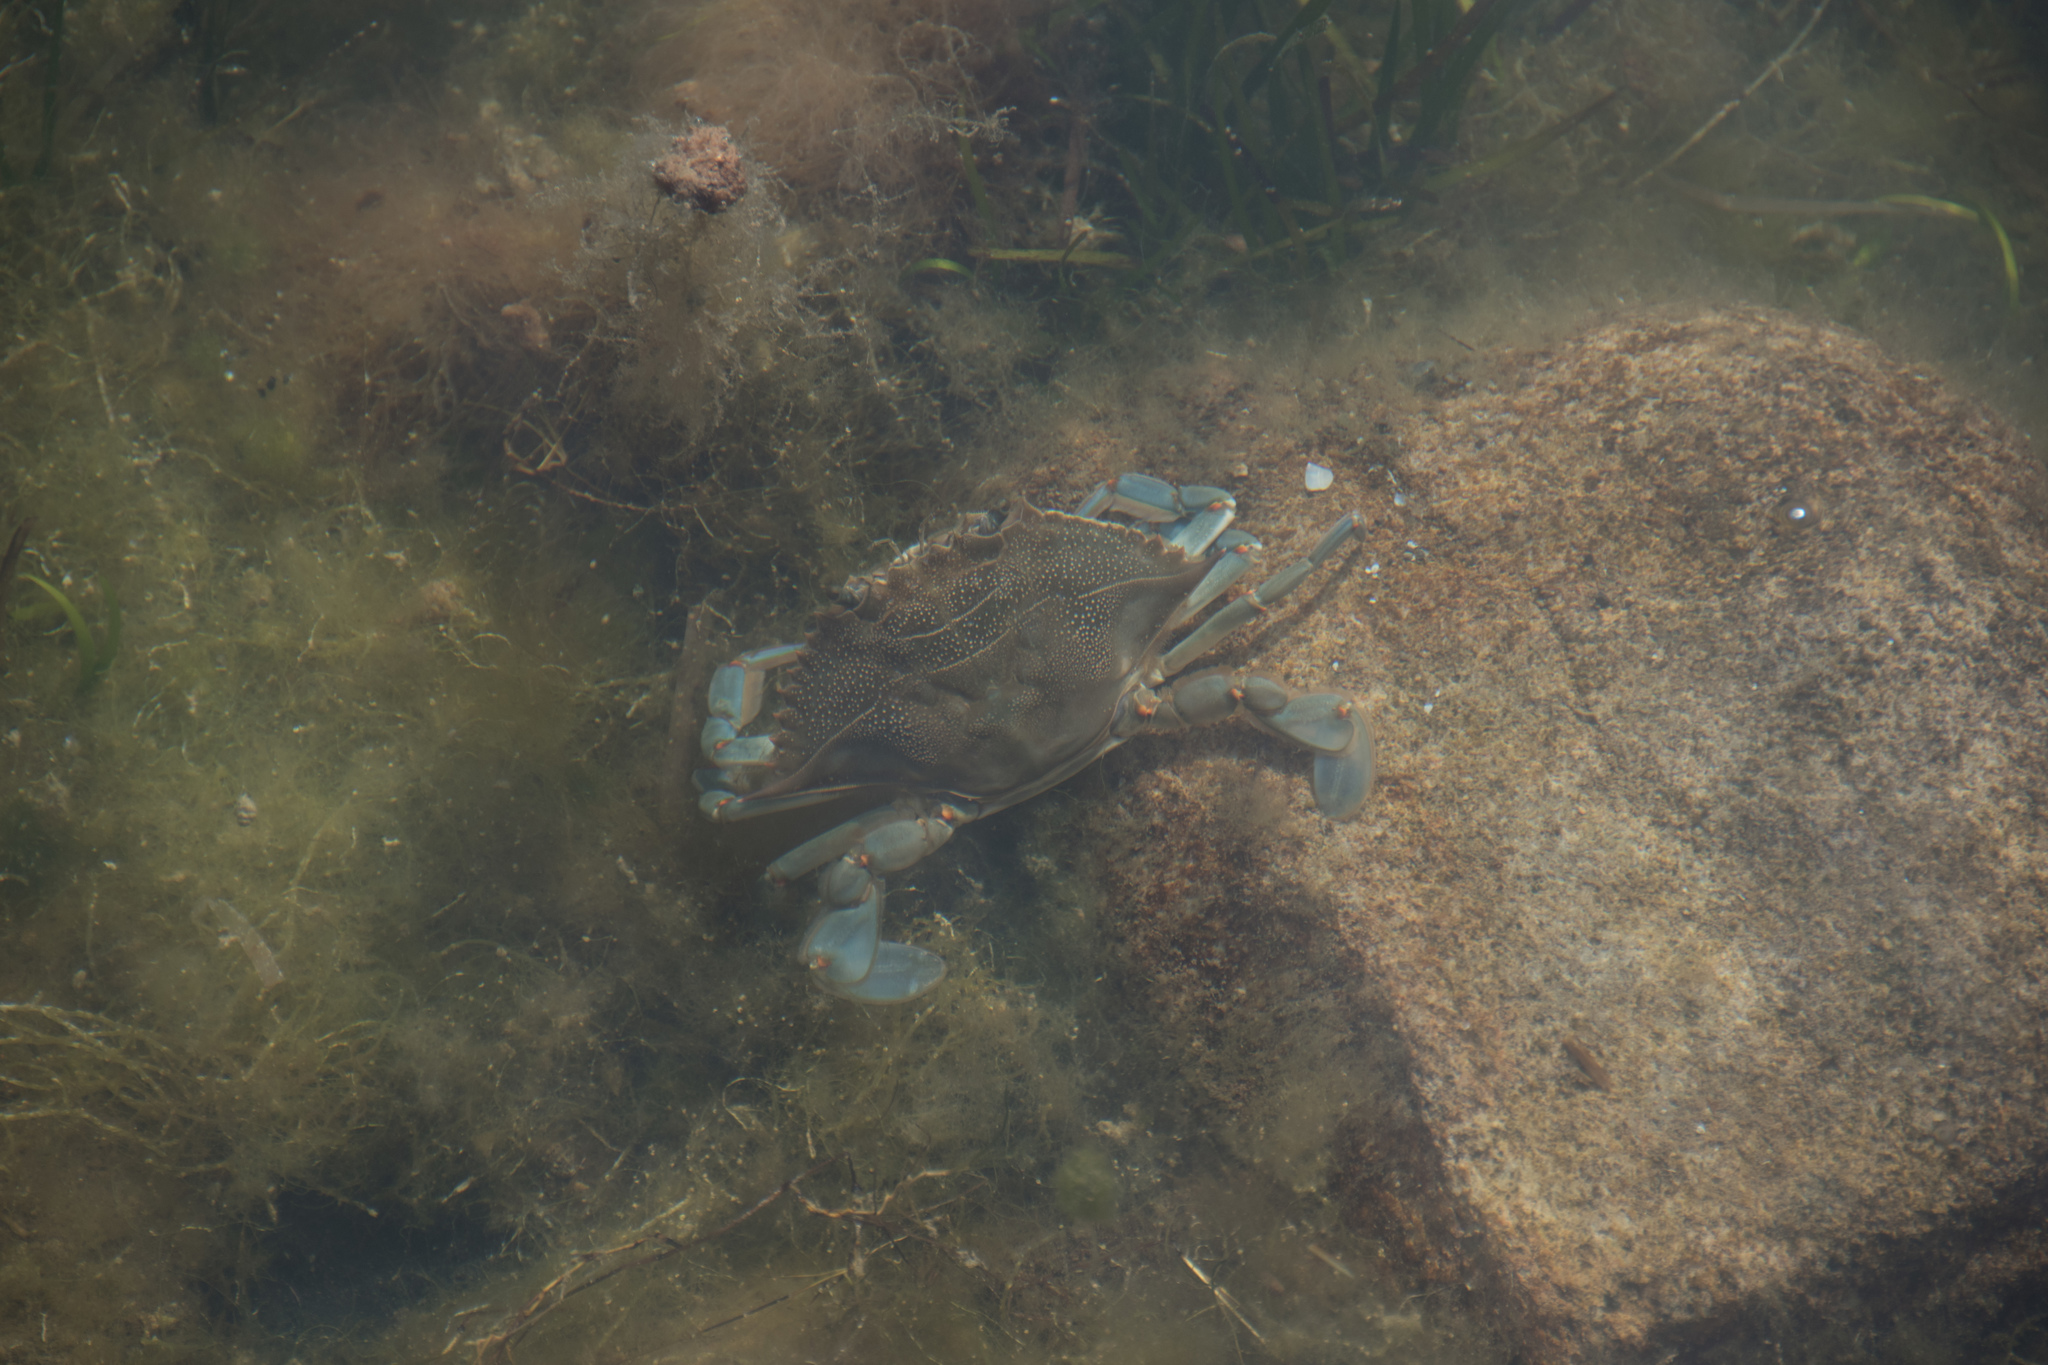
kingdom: Animalia
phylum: Arthropoda
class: Malacostraca
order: Decapoda
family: Portunidae
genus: Callinectes
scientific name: Callinectes sapidus
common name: Blue crab
